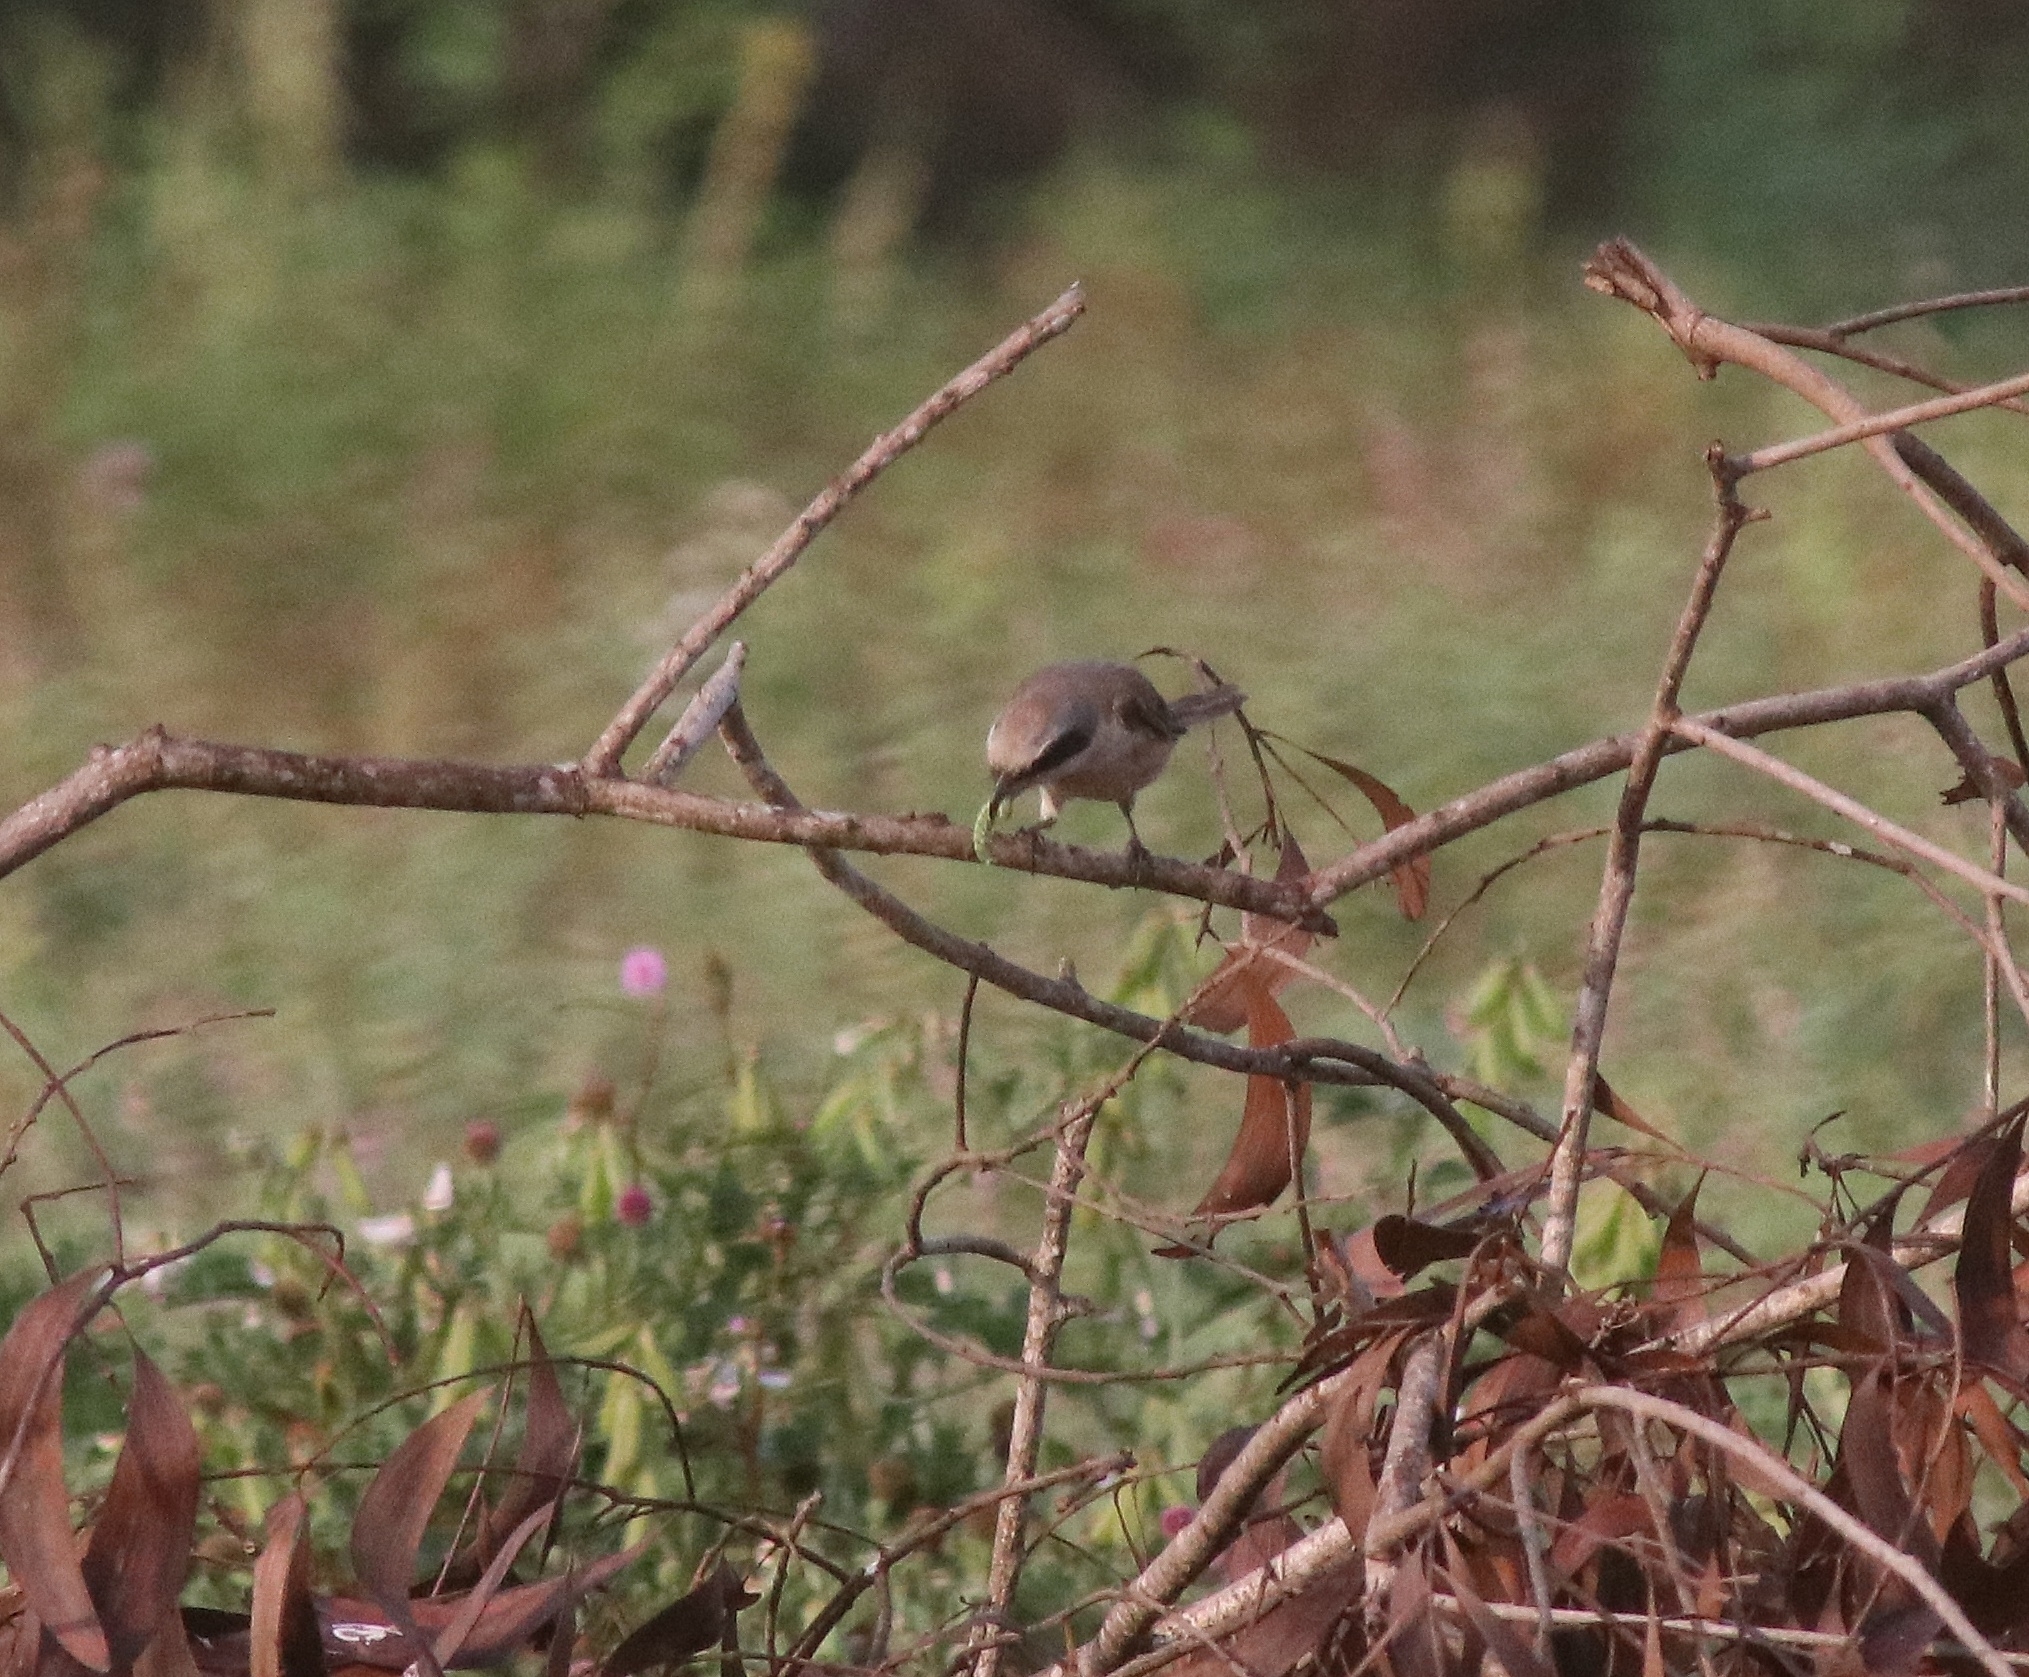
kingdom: Animalia
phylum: Chordata
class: Aves
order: Passeriformes
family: Laniidae
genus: Lanius
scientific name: Lanius cristatus
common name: Brown shrike
